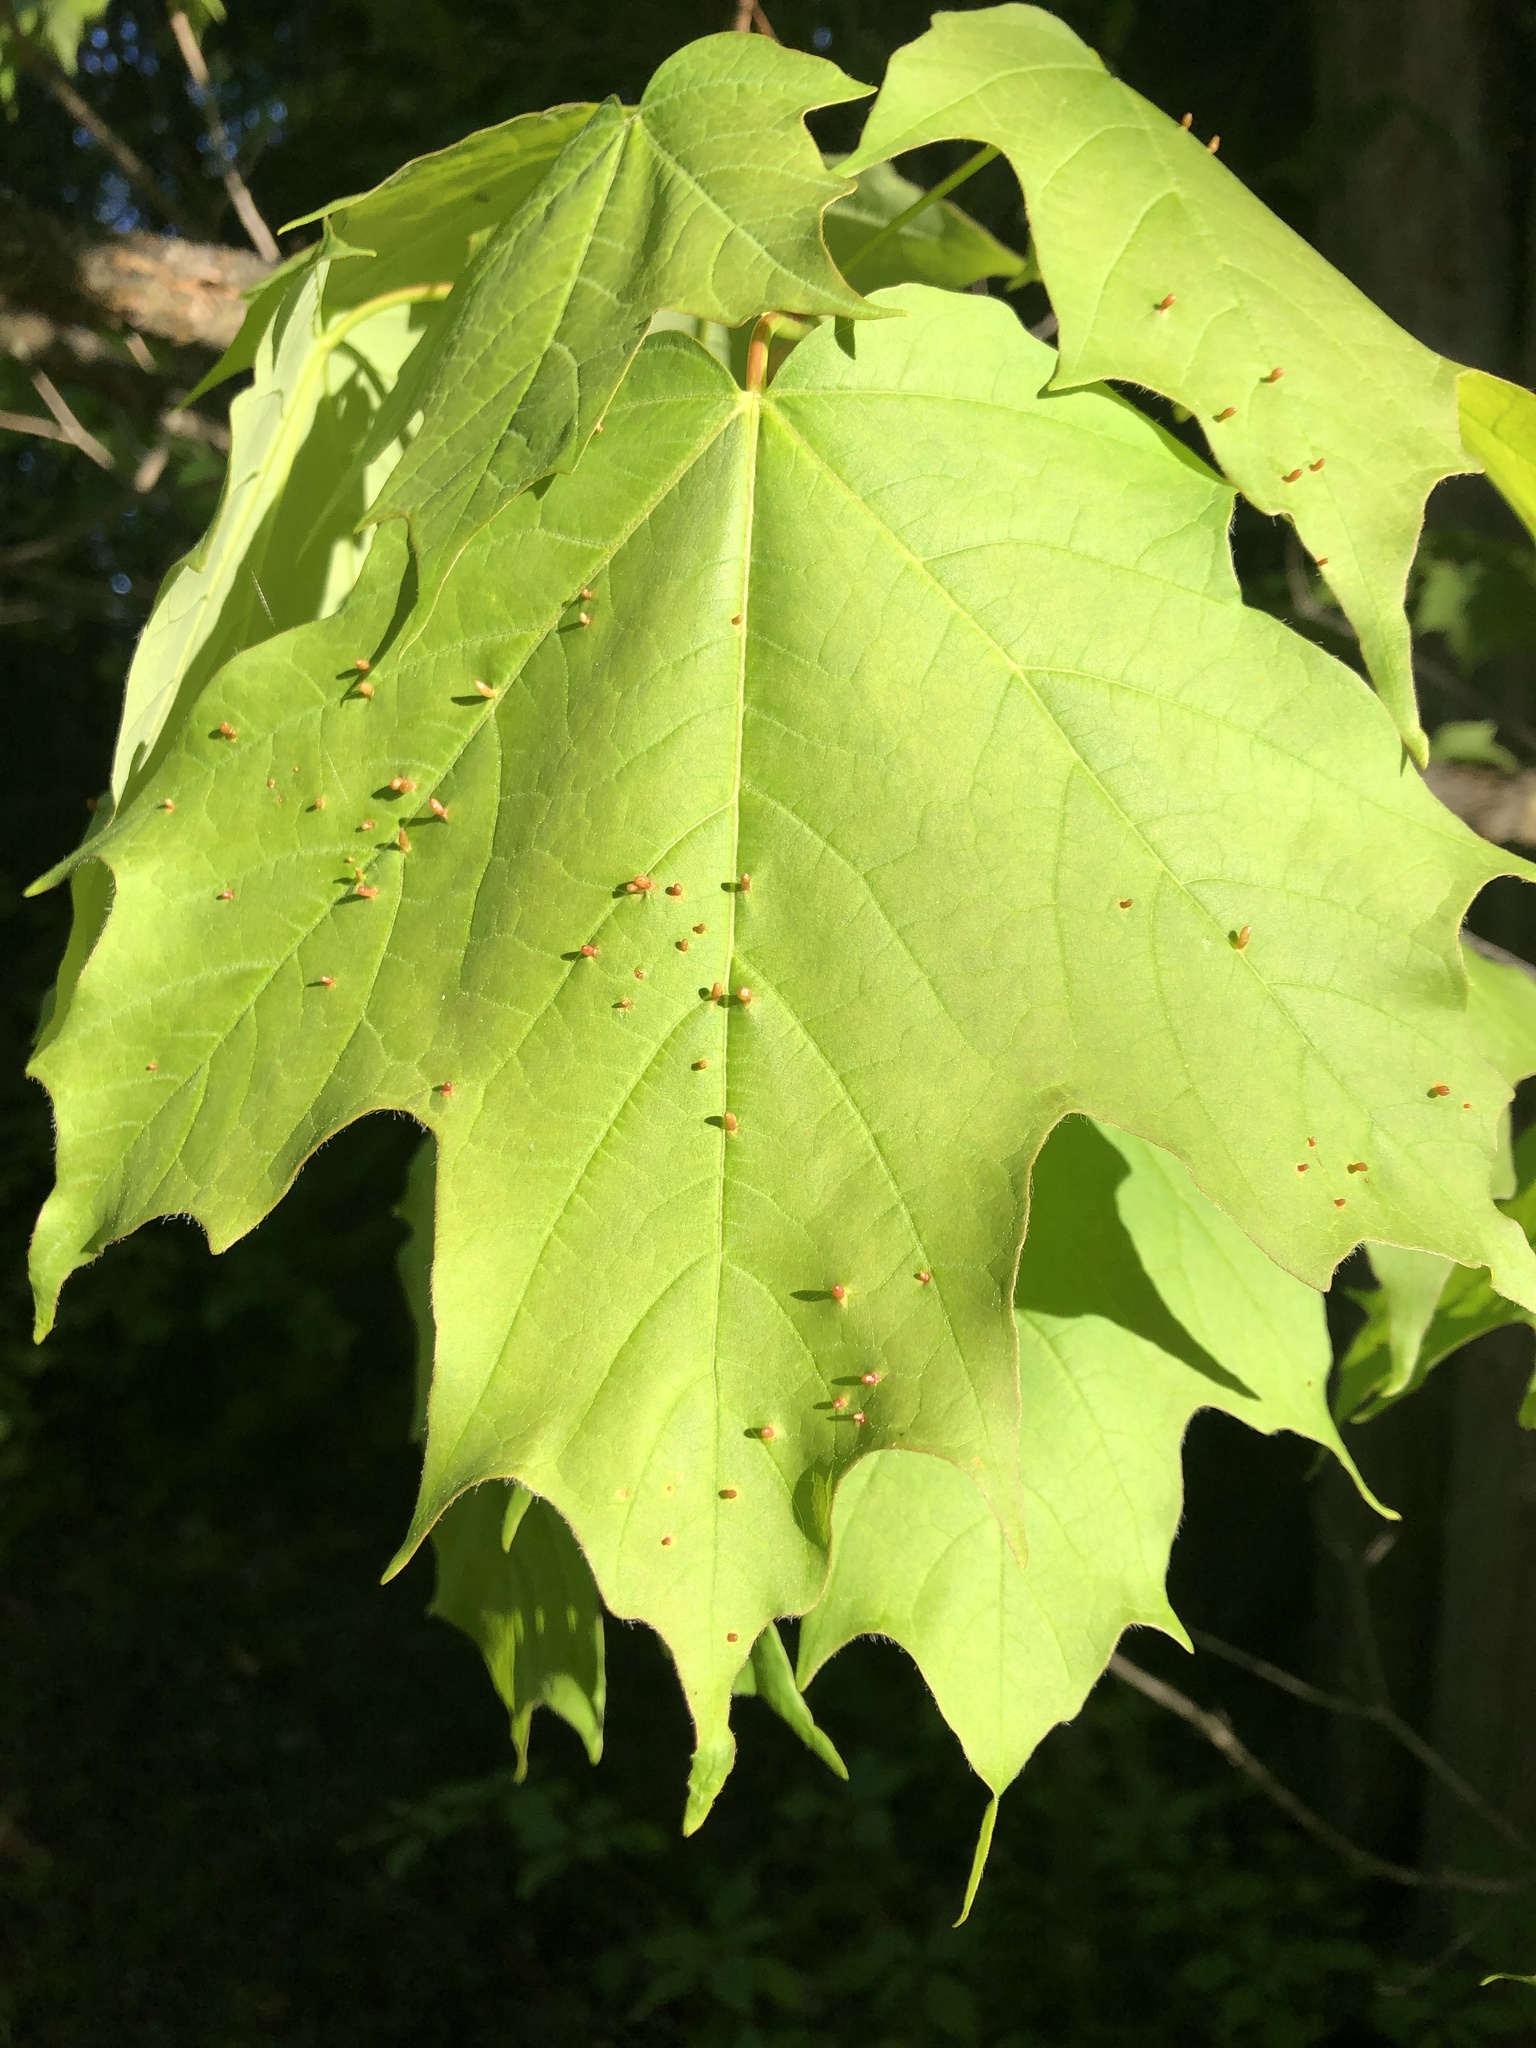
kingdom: Animalia
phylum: Arthropoda
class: Arachnida
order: Trombidiformes
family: Eriophyidae
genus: Vasates
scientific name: Vasates aceriscrumena
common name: Maple spindle gall mite
